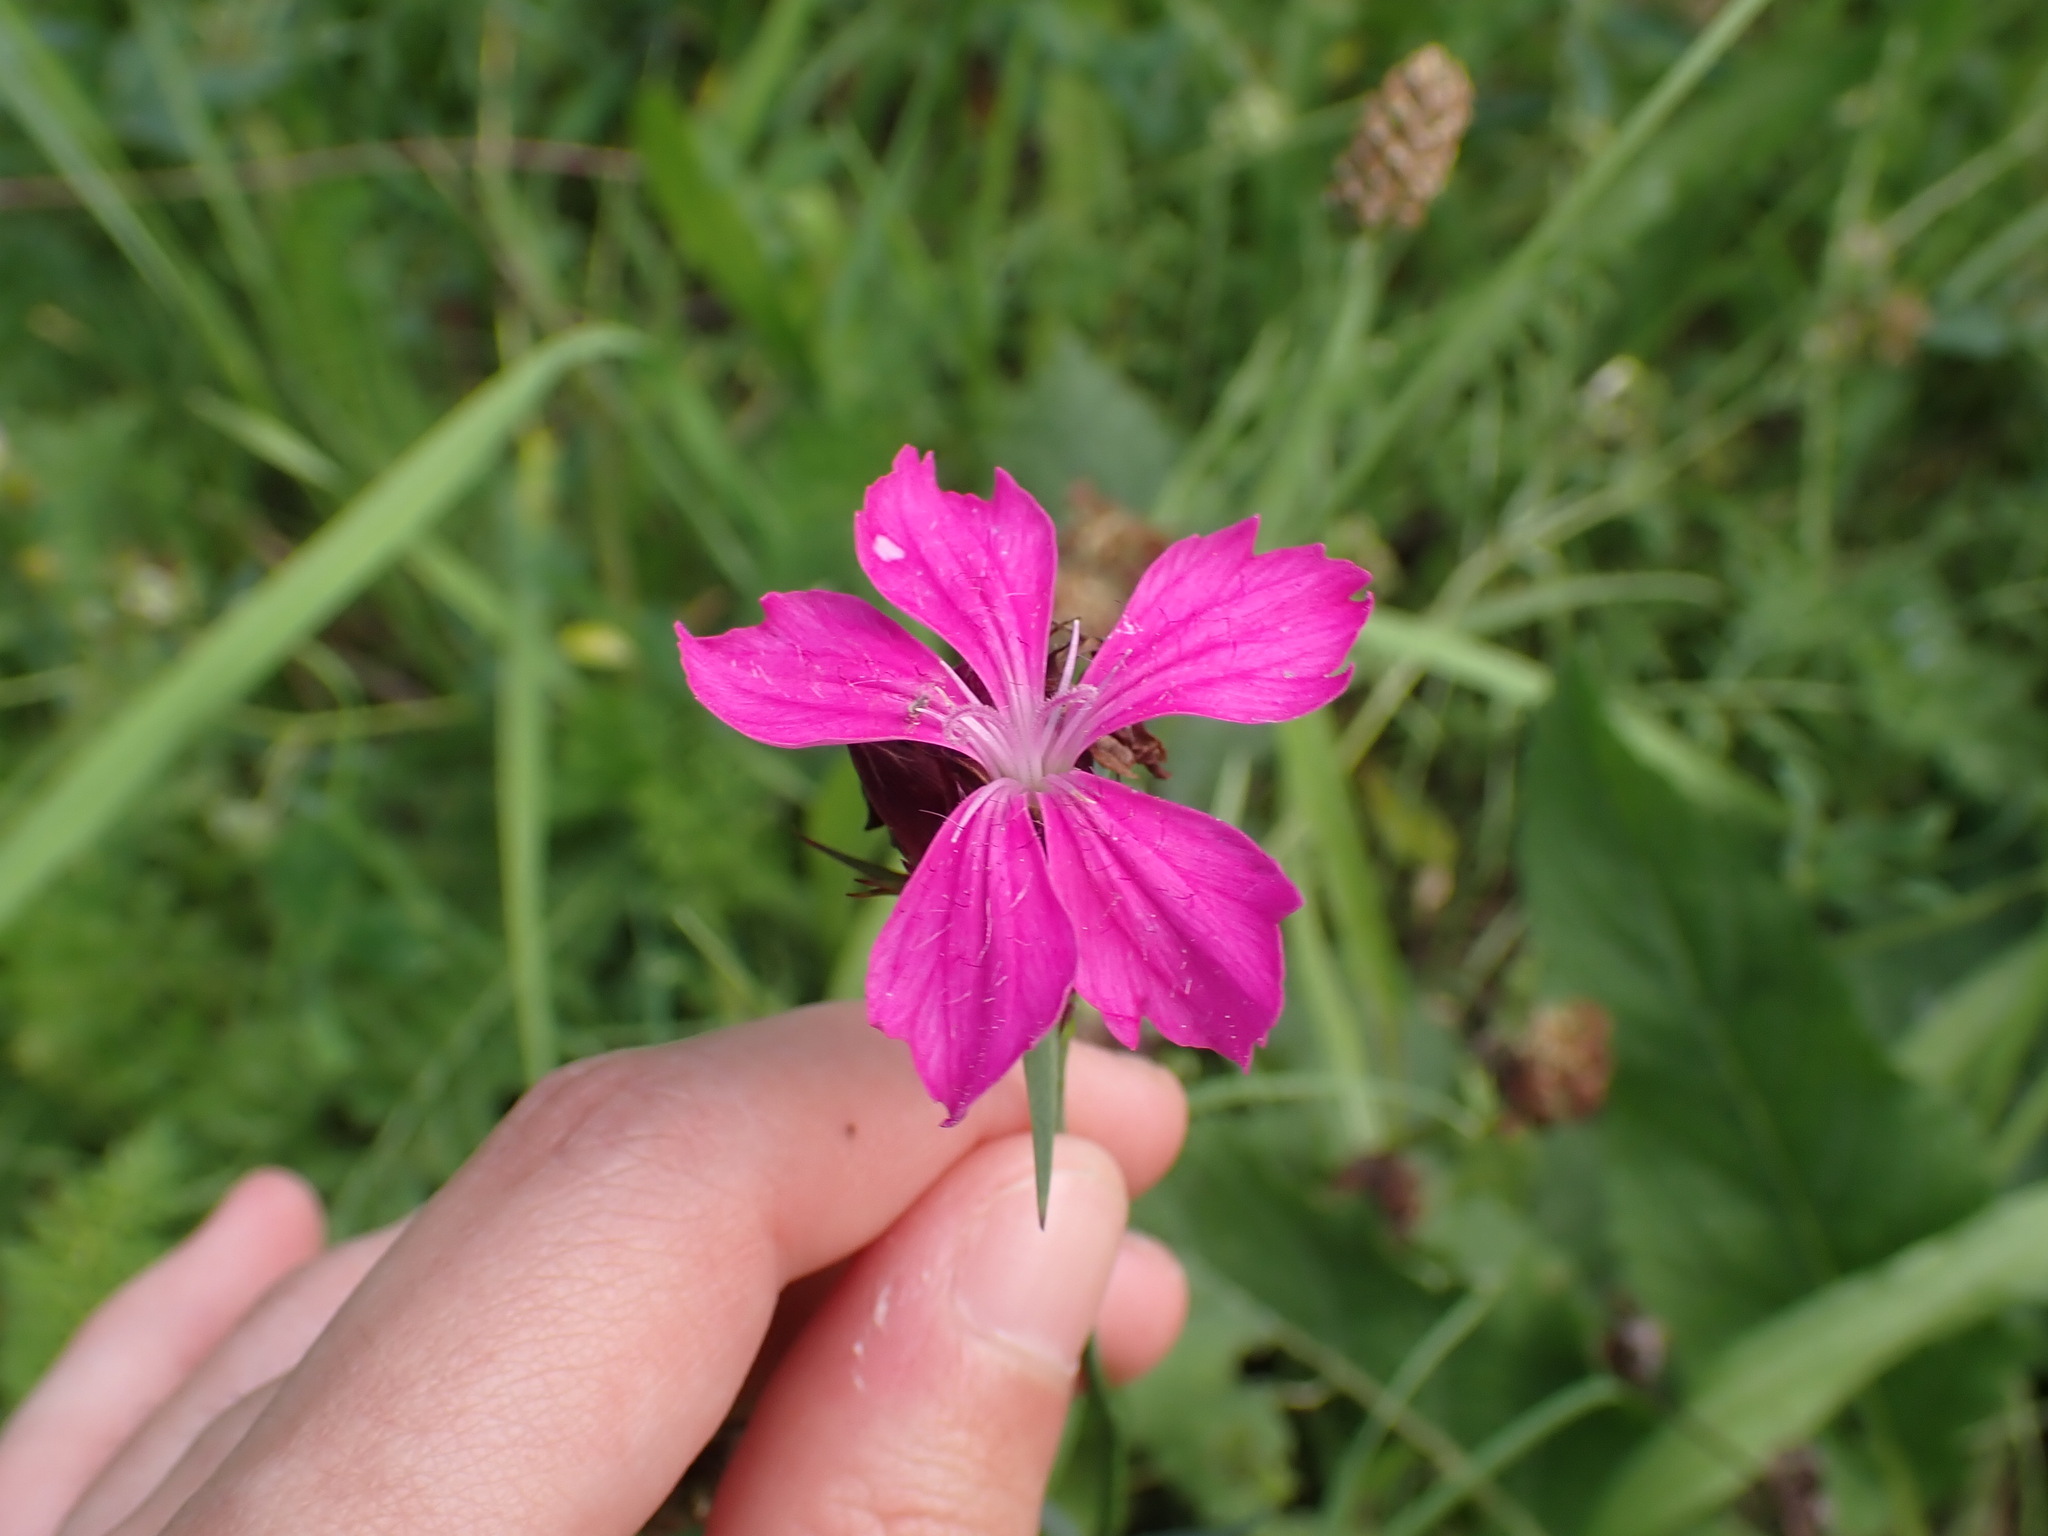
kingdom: Plantae
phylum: Tracheophyta
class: Magnoliopsida
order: Caryophyllales
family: Caryophyllaceae
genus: Dianthus
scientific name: Dianthus carthusianorum
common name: Carthusian pink
